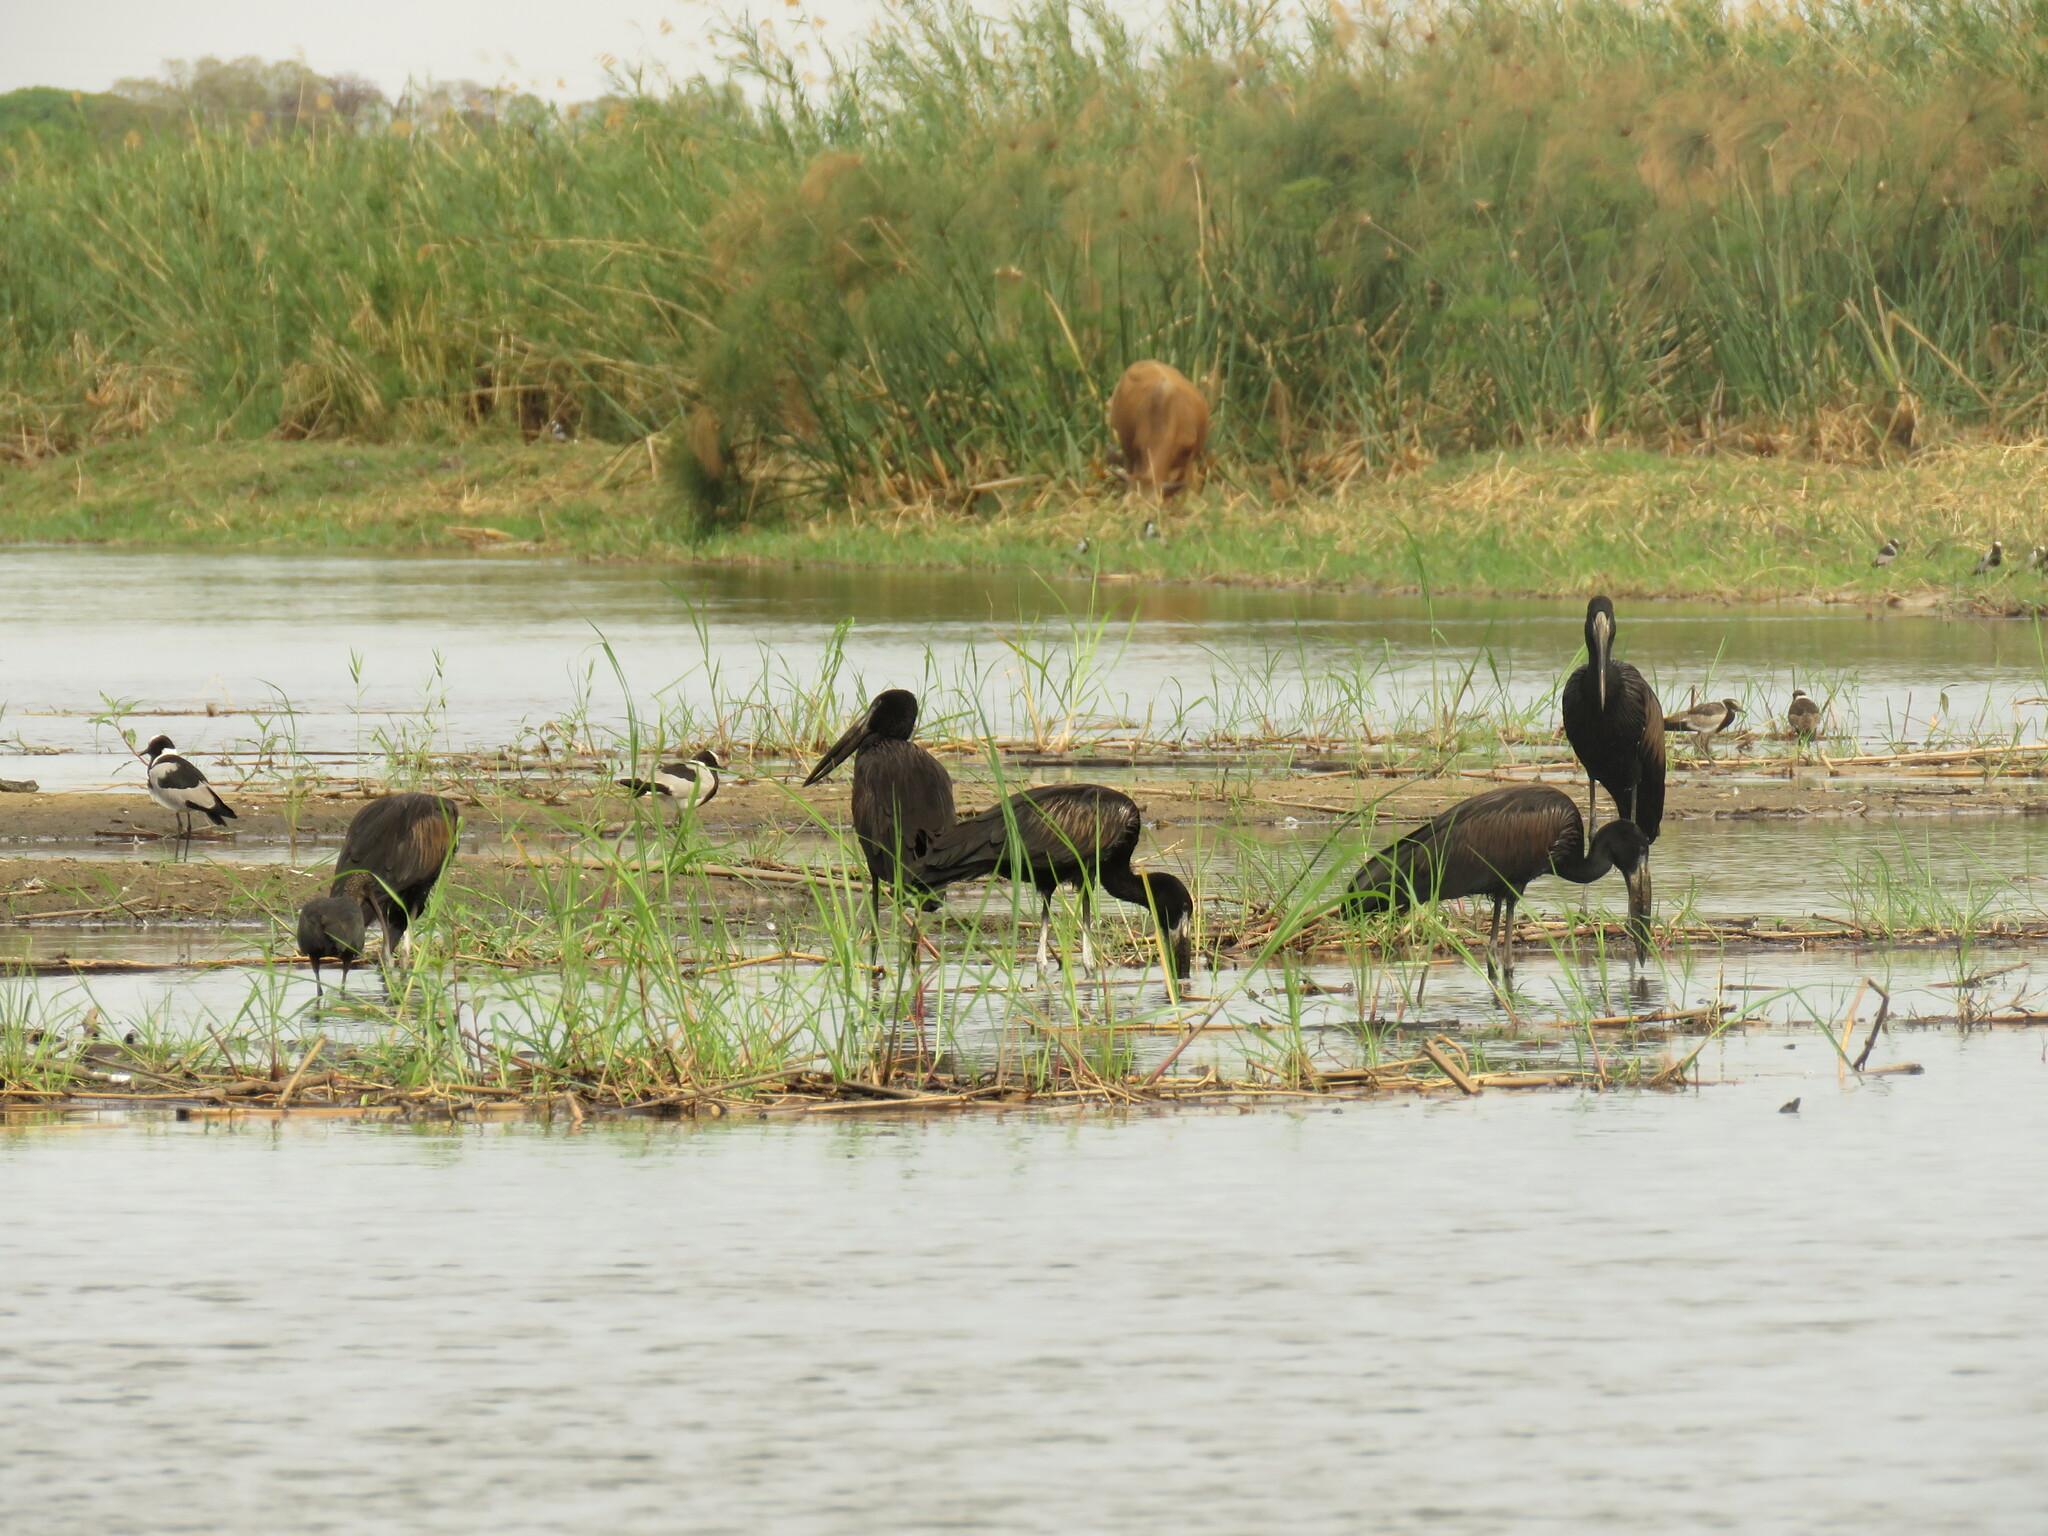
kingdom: Animalia
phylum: Chordata
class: Aves
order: Ciconiiformes
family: Ciconiidae
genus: Anastomus
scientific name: Anastomus lamelligerus
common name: African openbill
